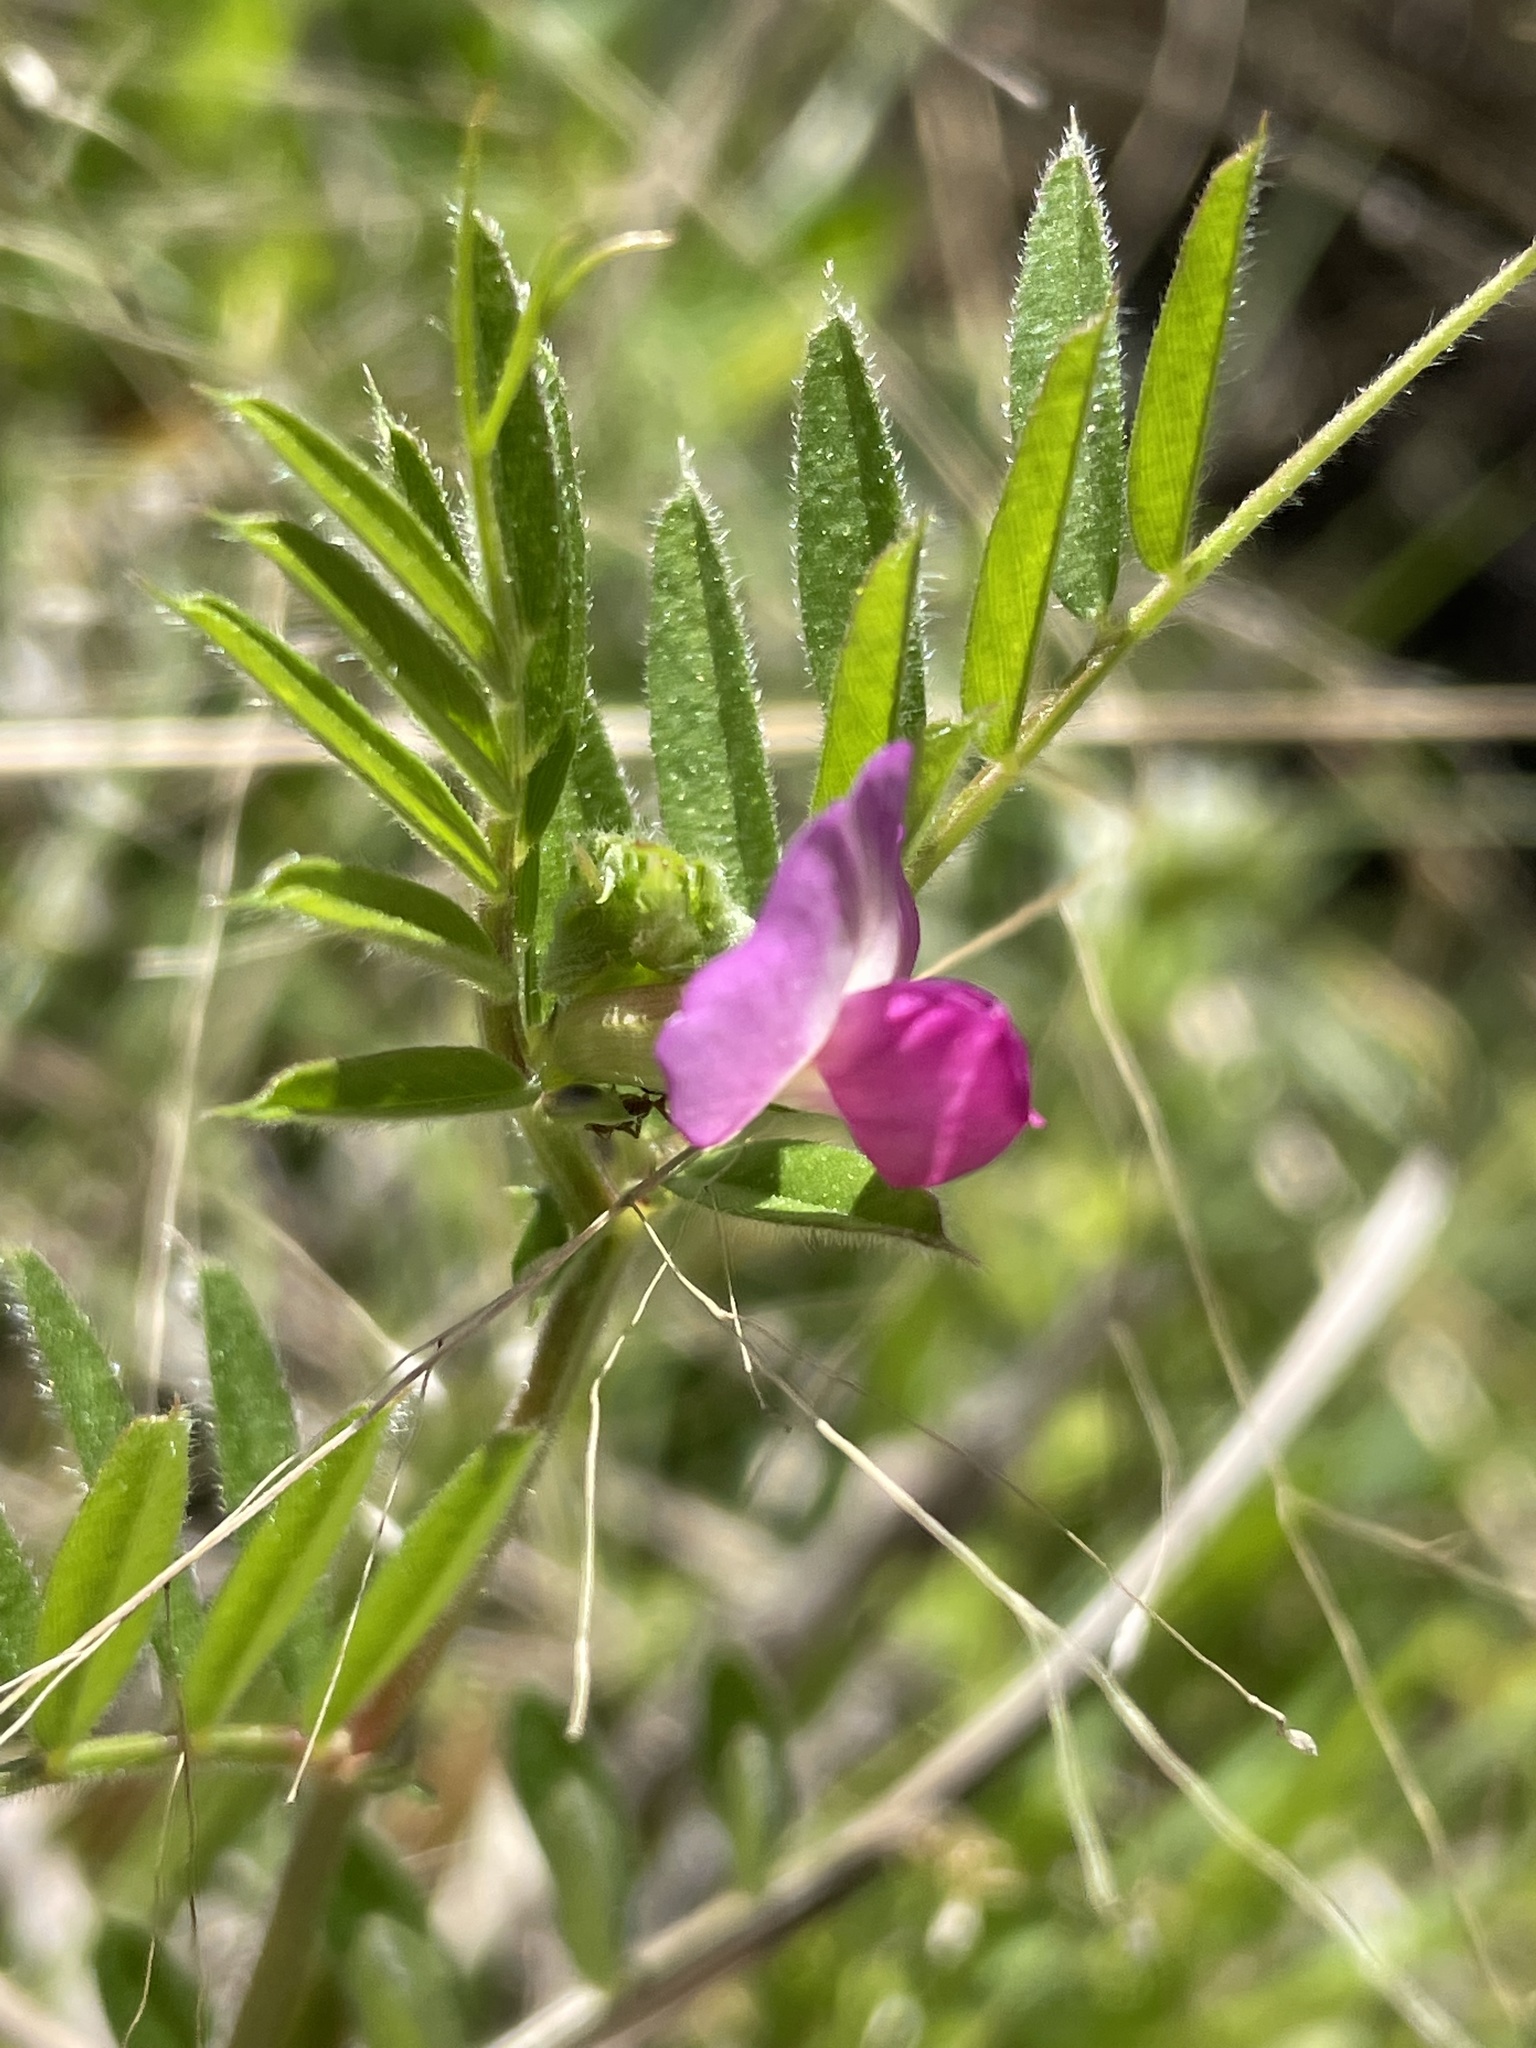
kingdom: Plantae
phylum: Tracheophyta
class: Magnoliopsida
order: Fabales
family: Fabaceae
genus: Vicia
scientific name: Vicia sativa
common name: Garden vetch
